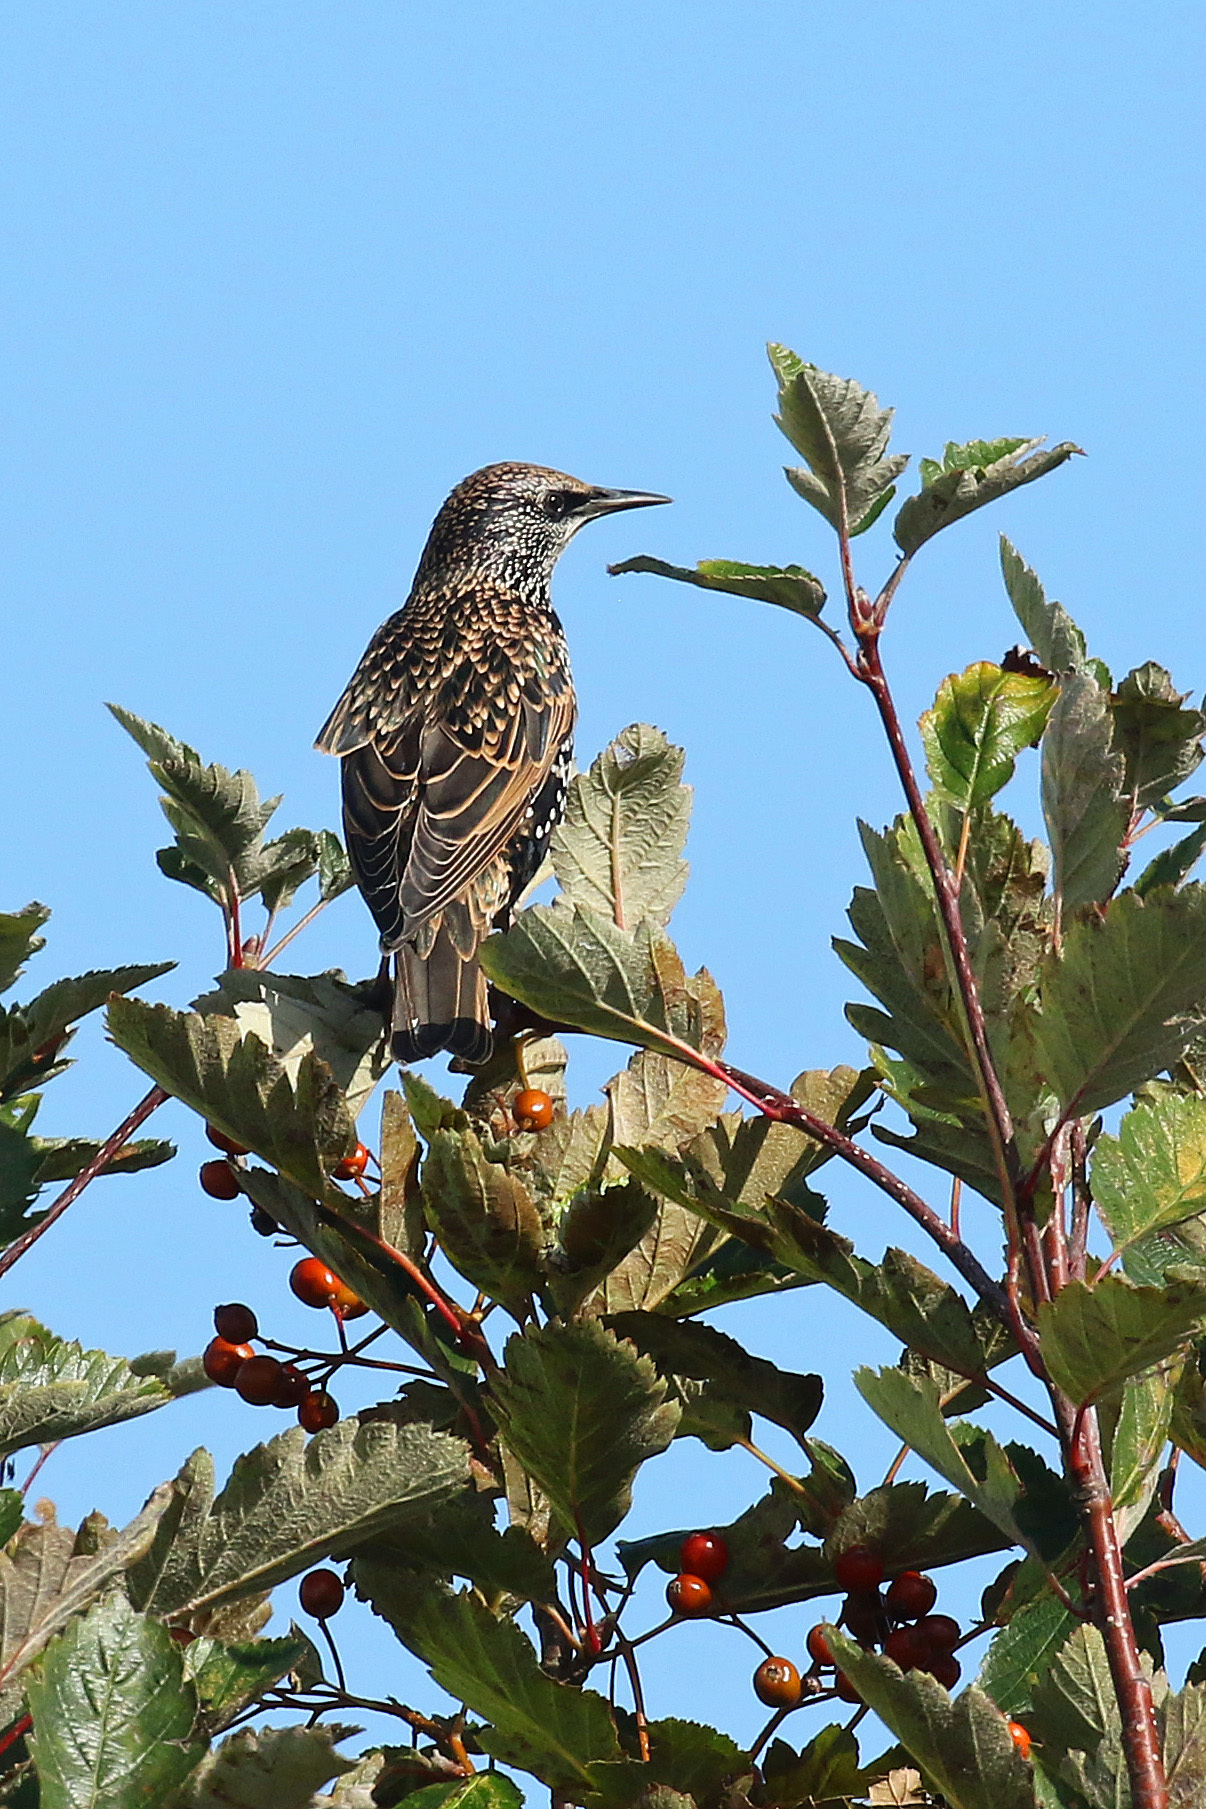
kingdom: Animalia
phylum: Chordata
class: Aves
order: Passeriformes
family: Sturnidae
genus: Sturnus
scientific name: Sturnus vulgaris
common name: Common starling
